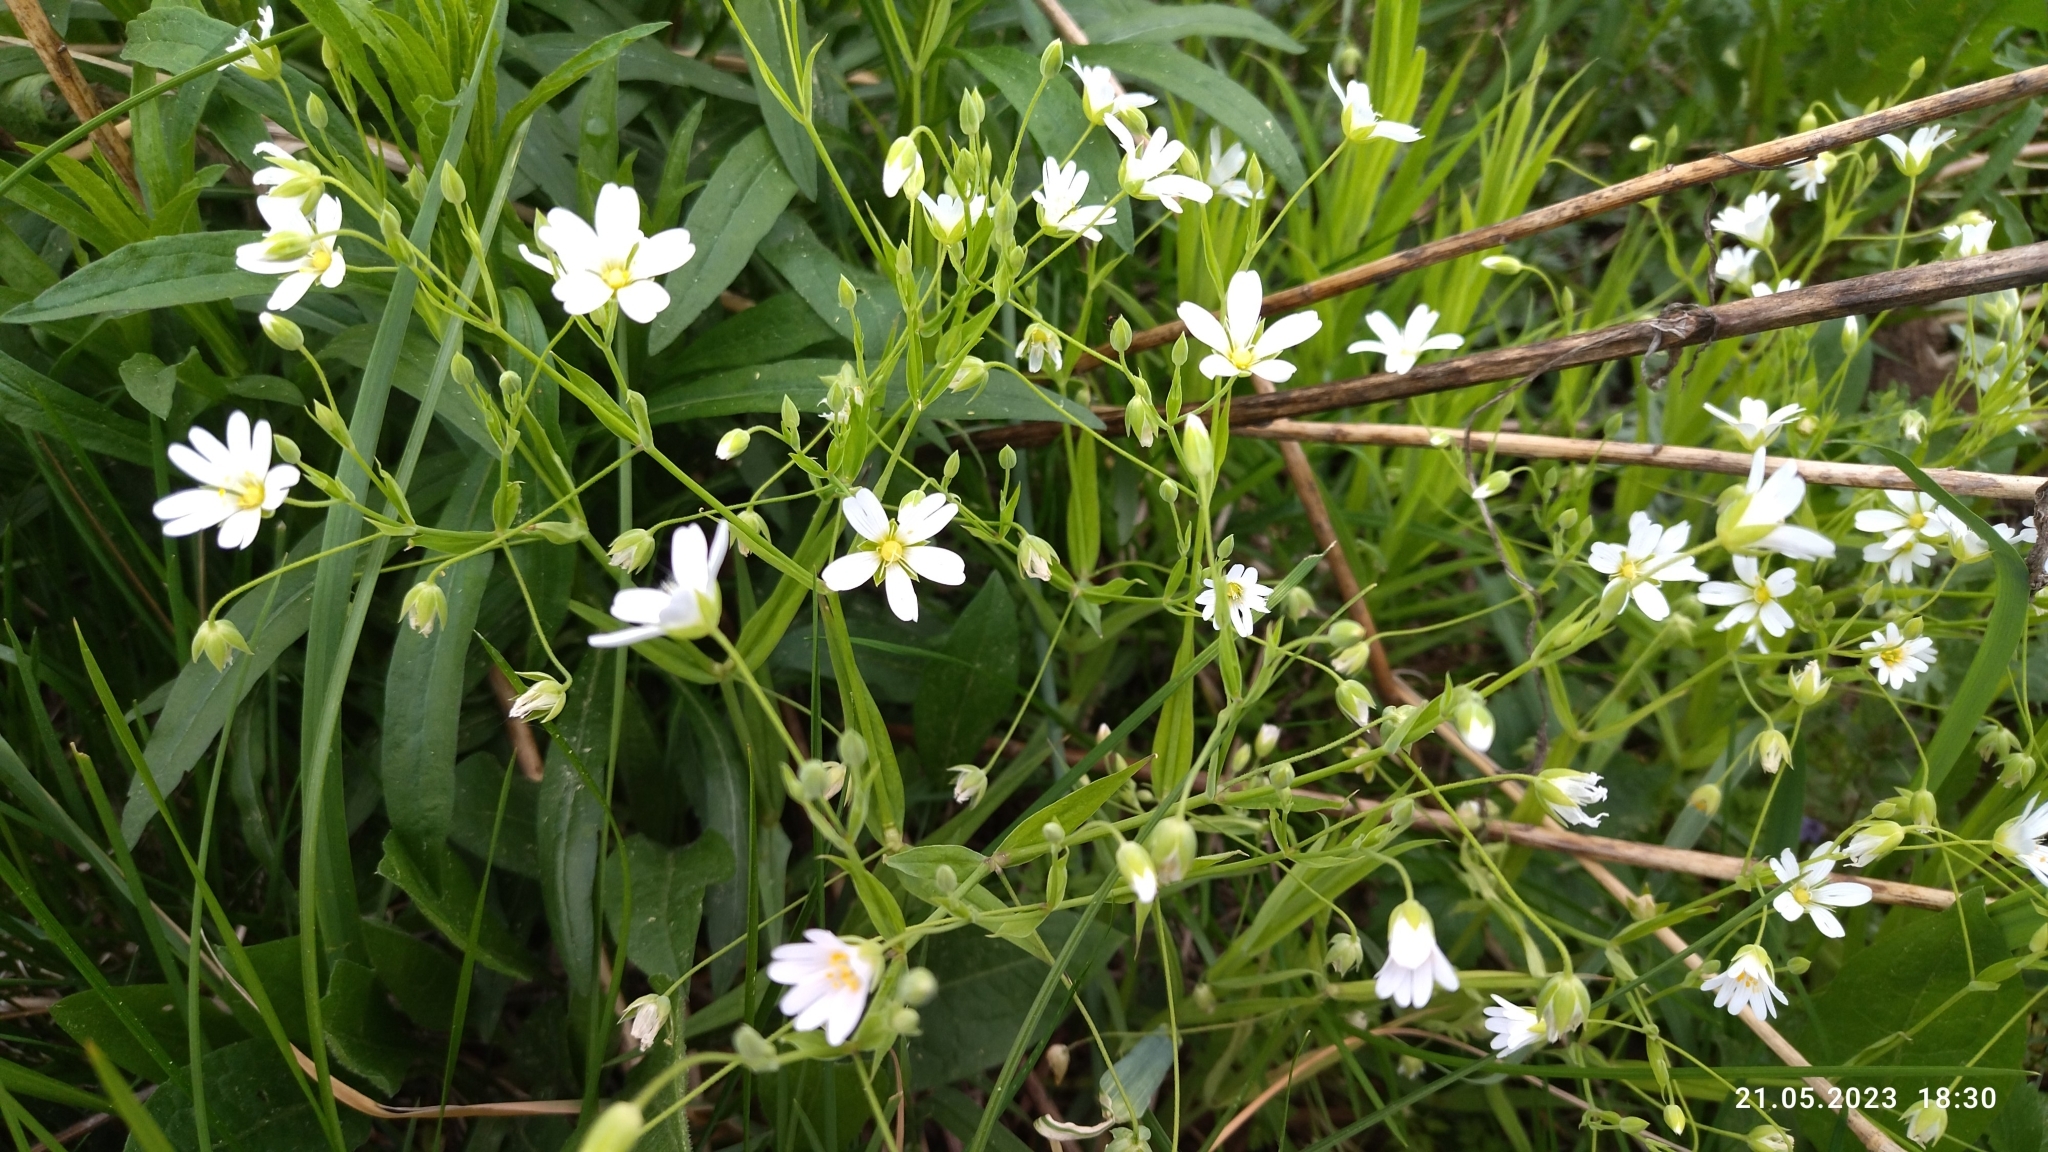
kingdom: Plantae
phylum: Tracheophyta
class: Magnoliopsida
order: Caryophyllales
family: Caryophyllaceae
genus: Rabelera
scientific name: Rabelera holostea
